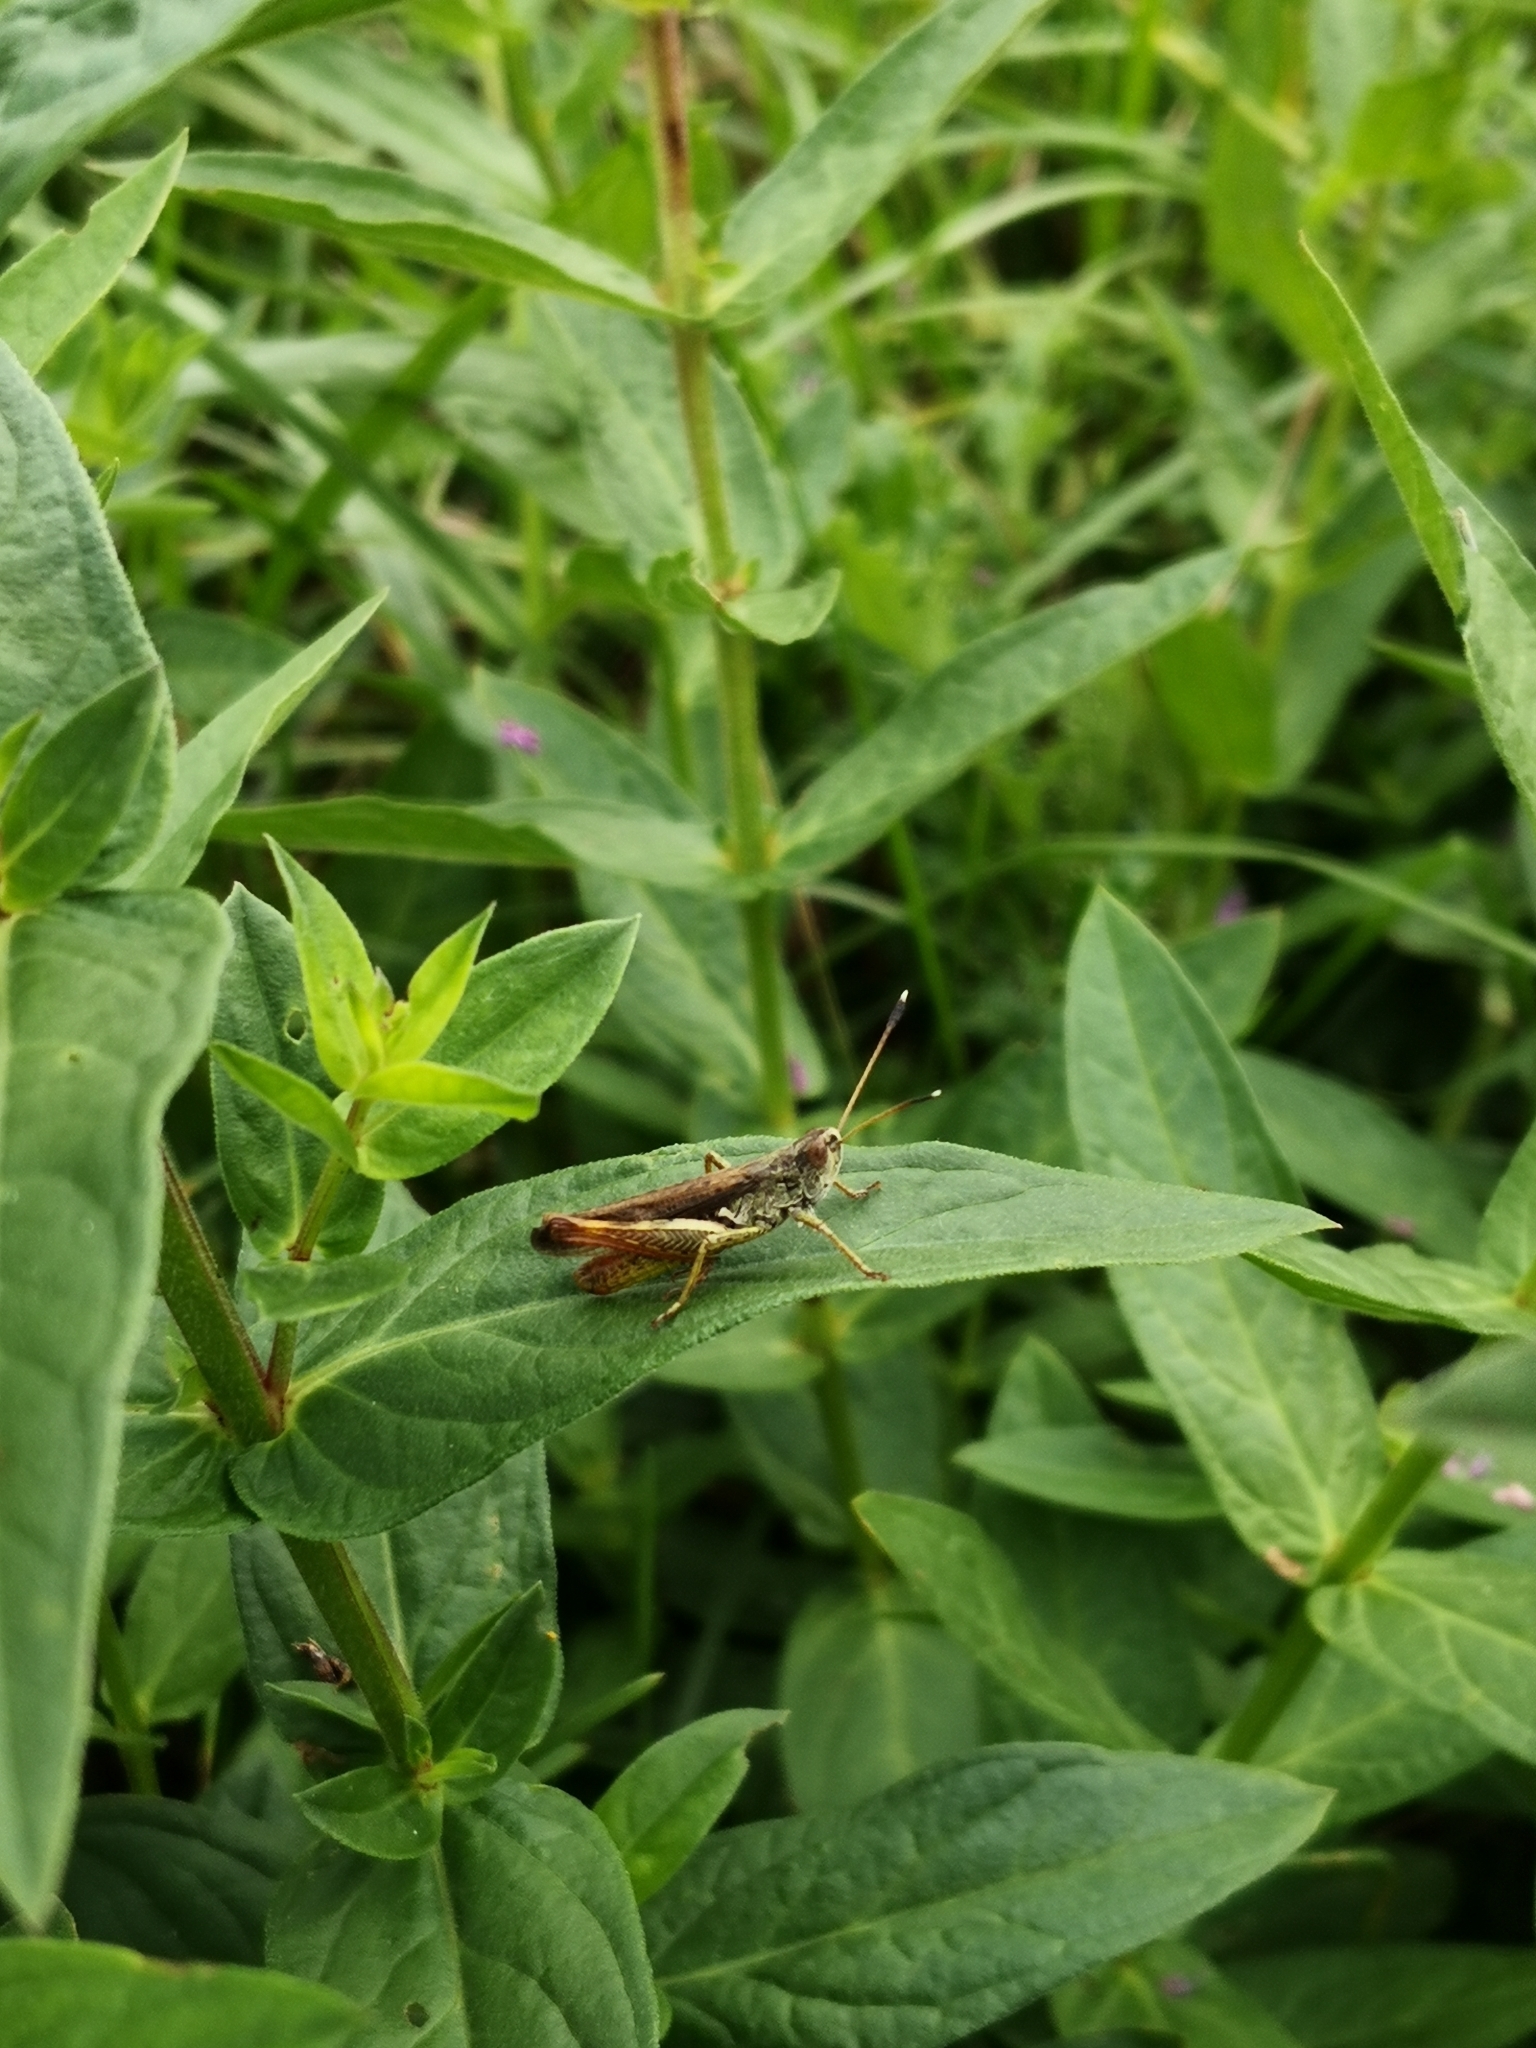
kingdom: Animalia
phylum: Arthropoda
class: Insecta
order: Orthoptera
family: Acrididae
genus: Gomphocerippus
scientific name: Gomphocerippus rufus
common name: Rufous grasshopper
